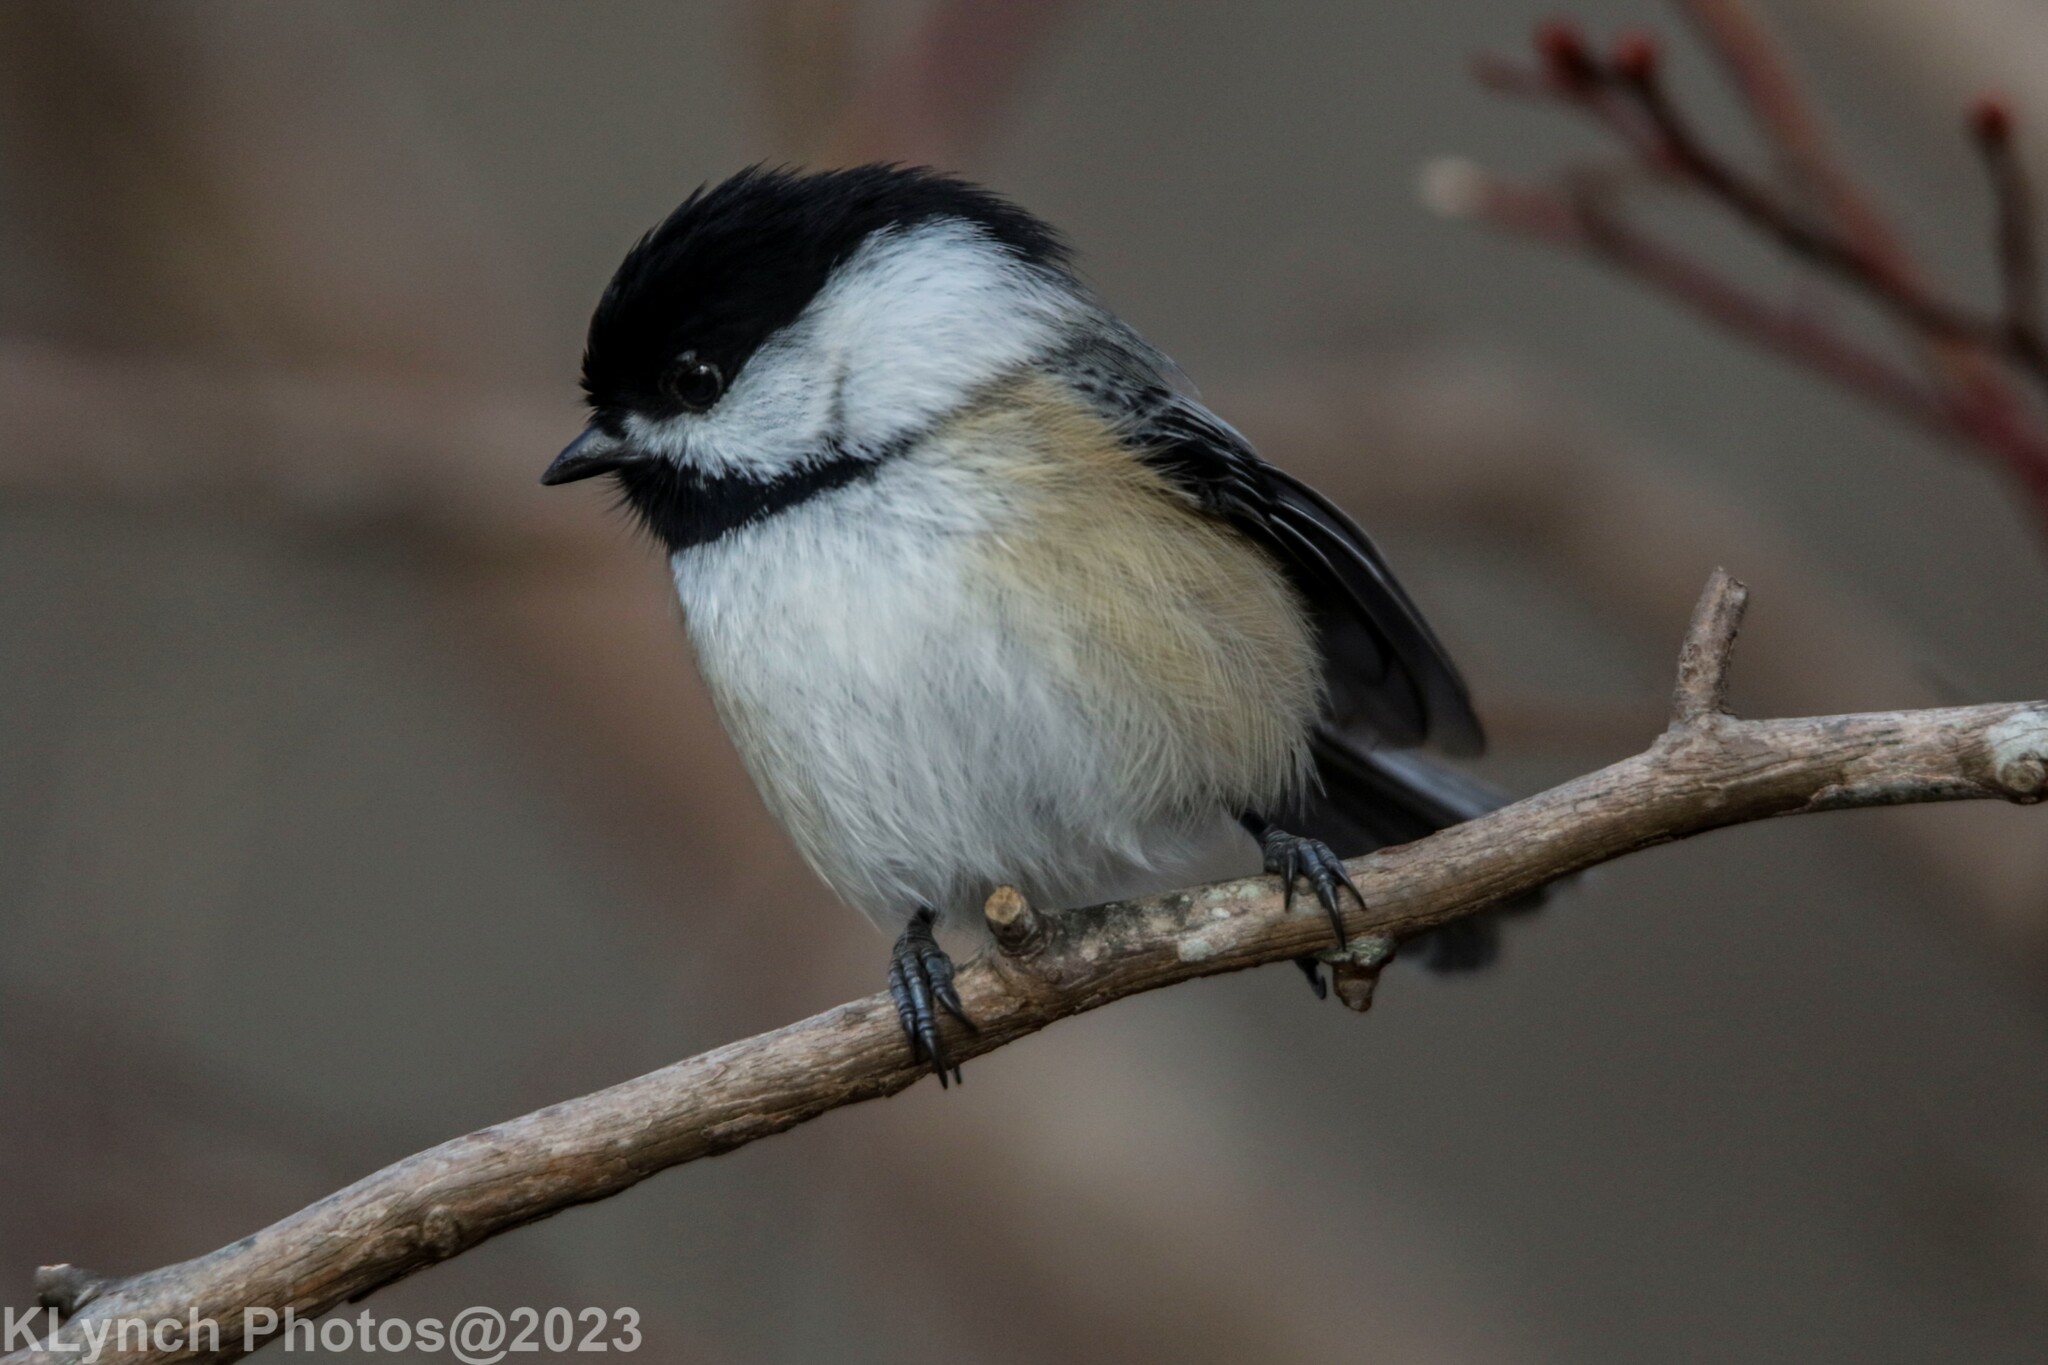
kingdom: Animalia
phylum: Chordata
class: Aves
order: Passeriformes
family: Paridae
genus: Poecile
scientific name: Poecile atricapillus
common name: Black-capped chickadee
